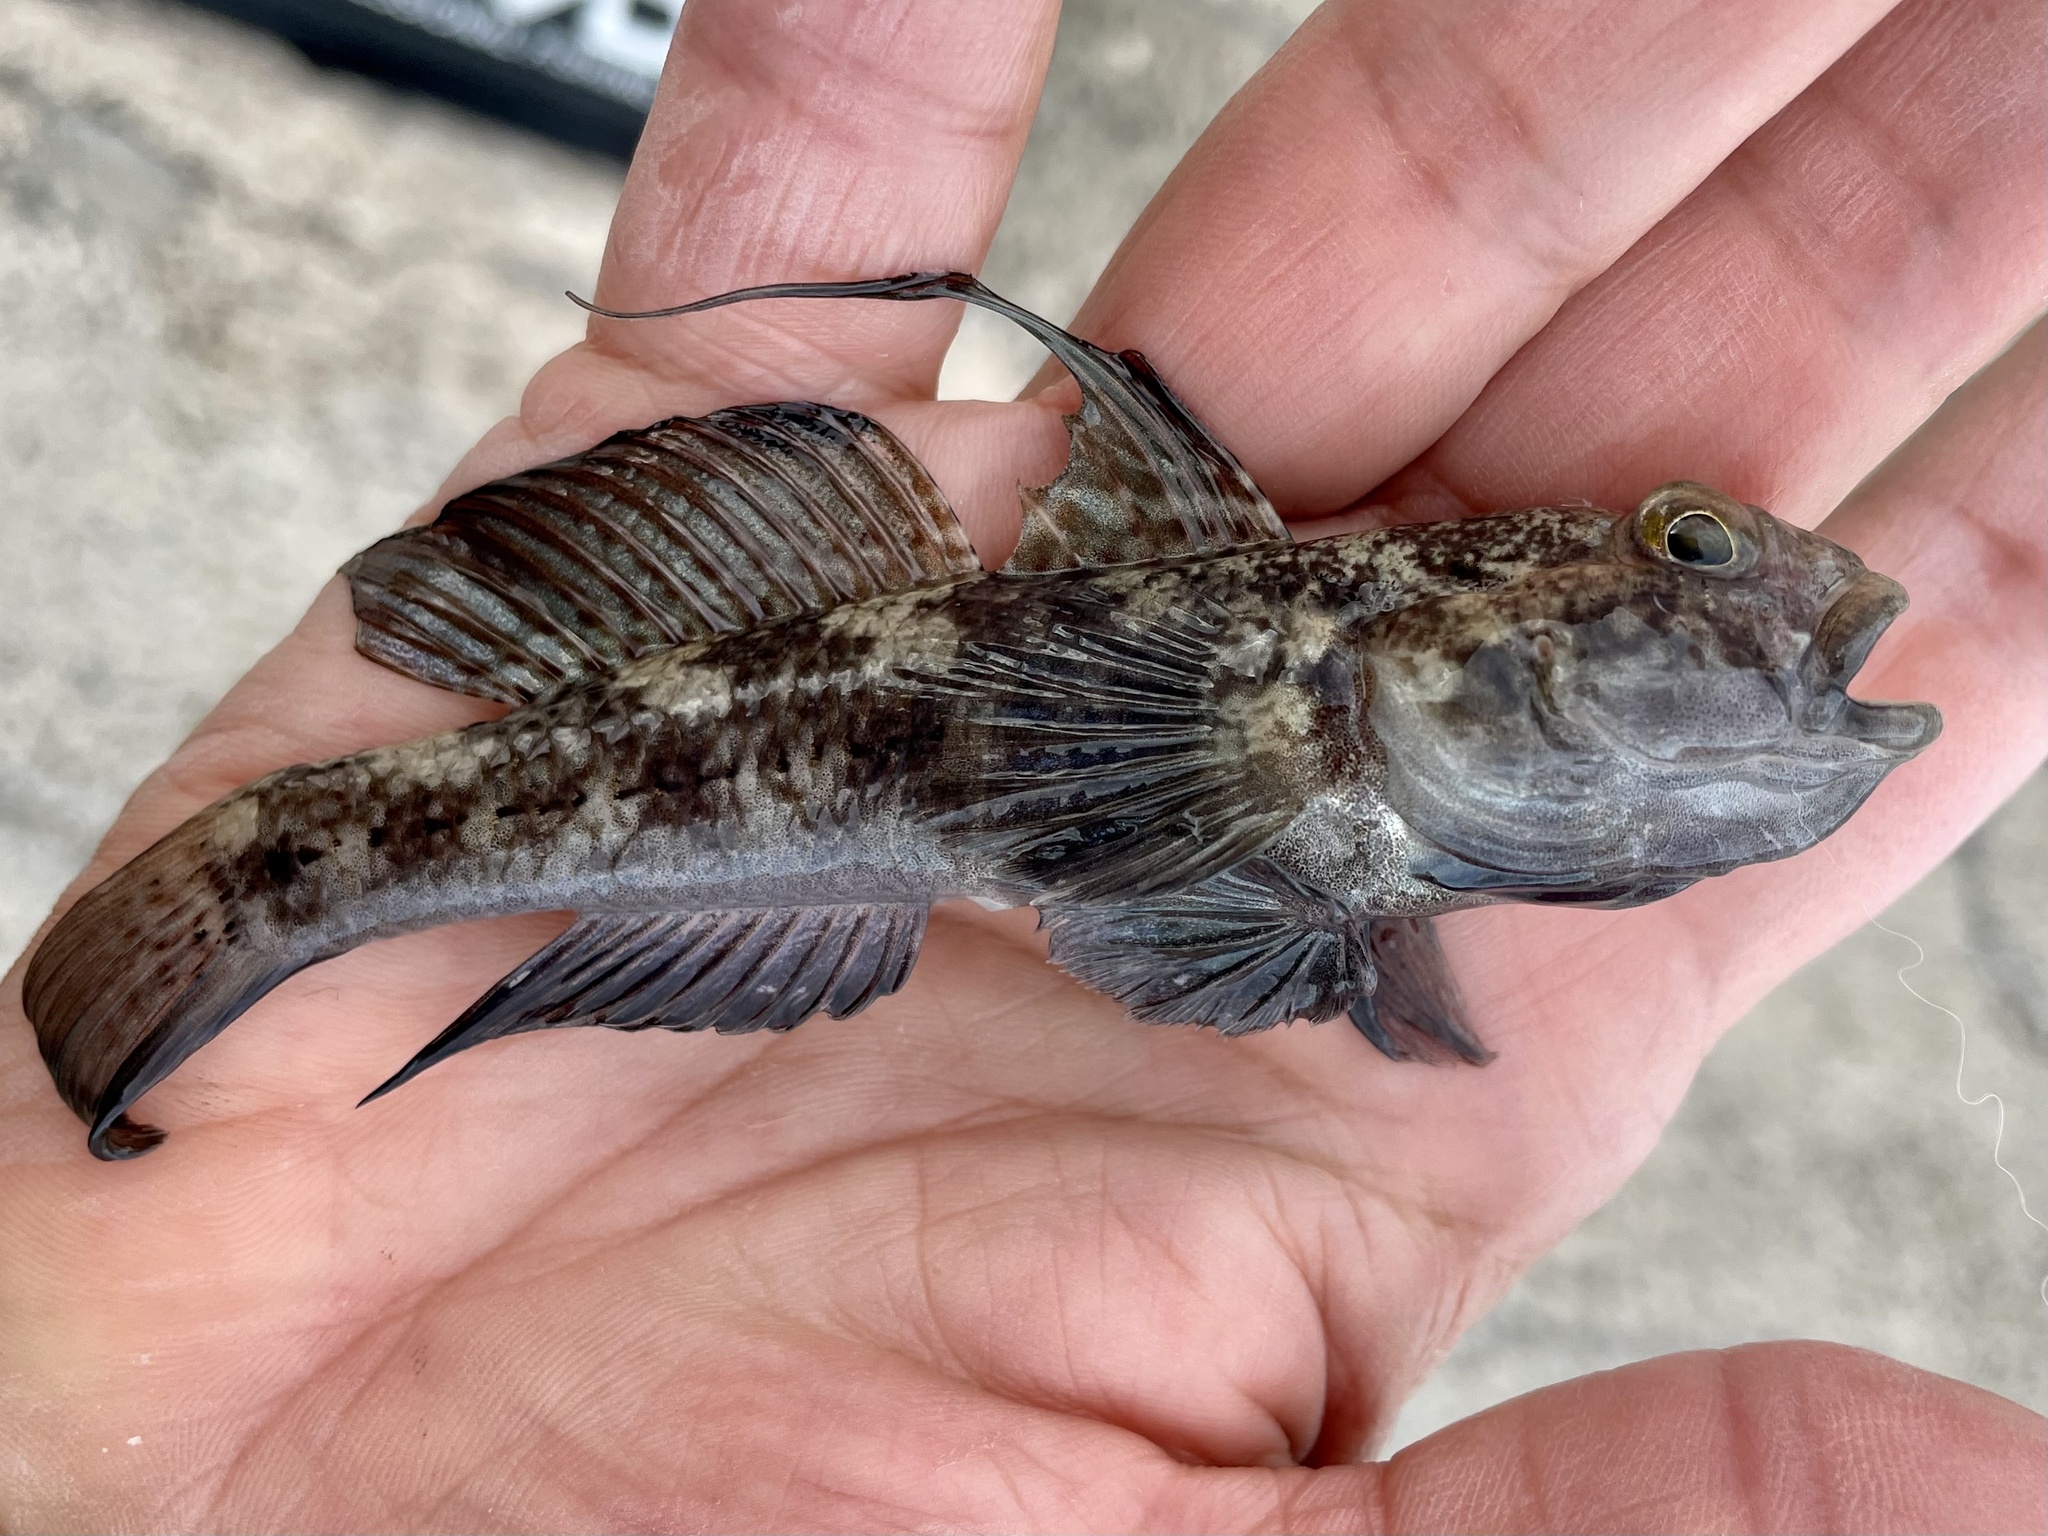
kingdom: Animalia
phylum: Chordata
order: Perciformes
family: Gobiidae
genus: Gobius
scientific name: Gobius niger
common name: Black goby
